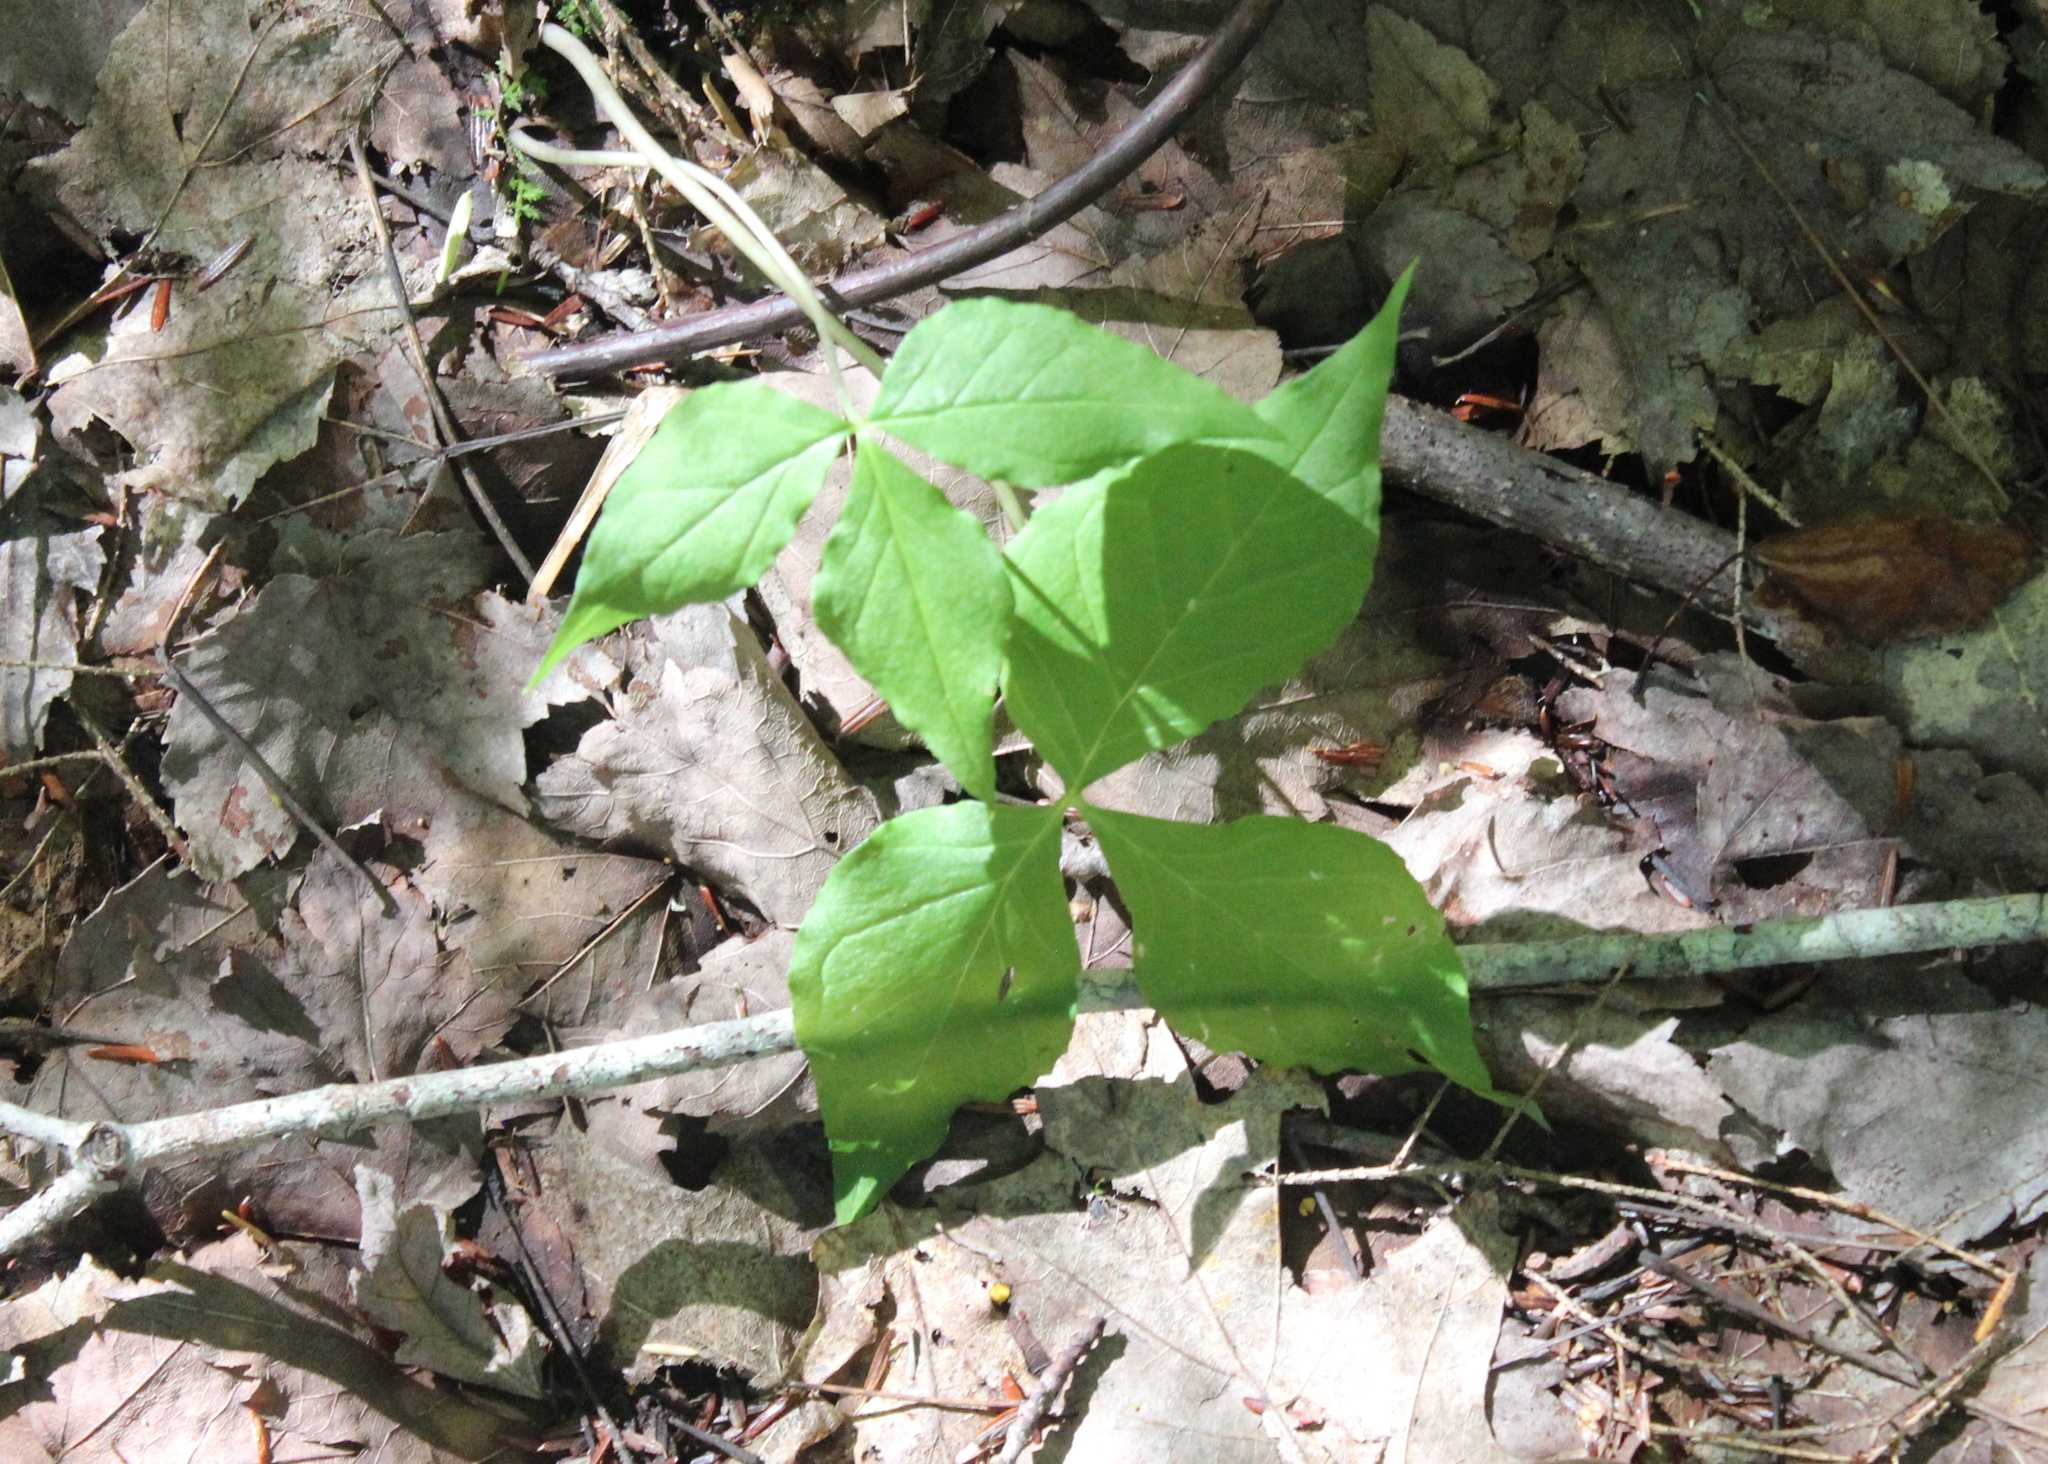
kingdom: Plantae
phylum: Tracheophyta
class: Liliopsida
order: Alismatales
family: Araceae
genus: Arisaema
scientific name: Arisaema triphyllum
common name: Jack-in-the-pulpit
